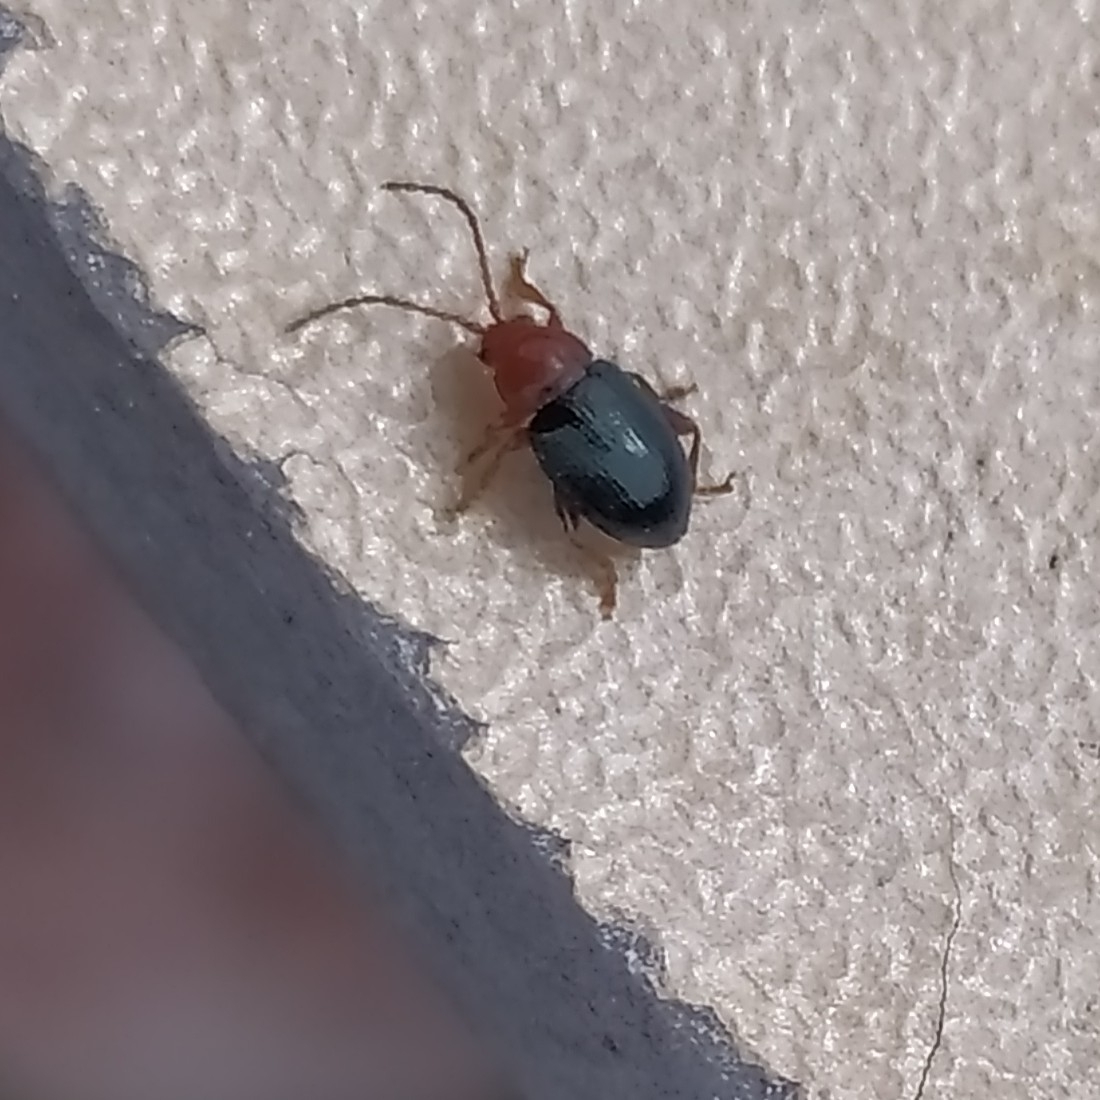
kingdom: Animalia
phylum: Arthropoda
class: Insecta
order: Coleoptera
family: Chrysomelidae
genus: Derocrepis
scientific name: Derocrepis rufipes
